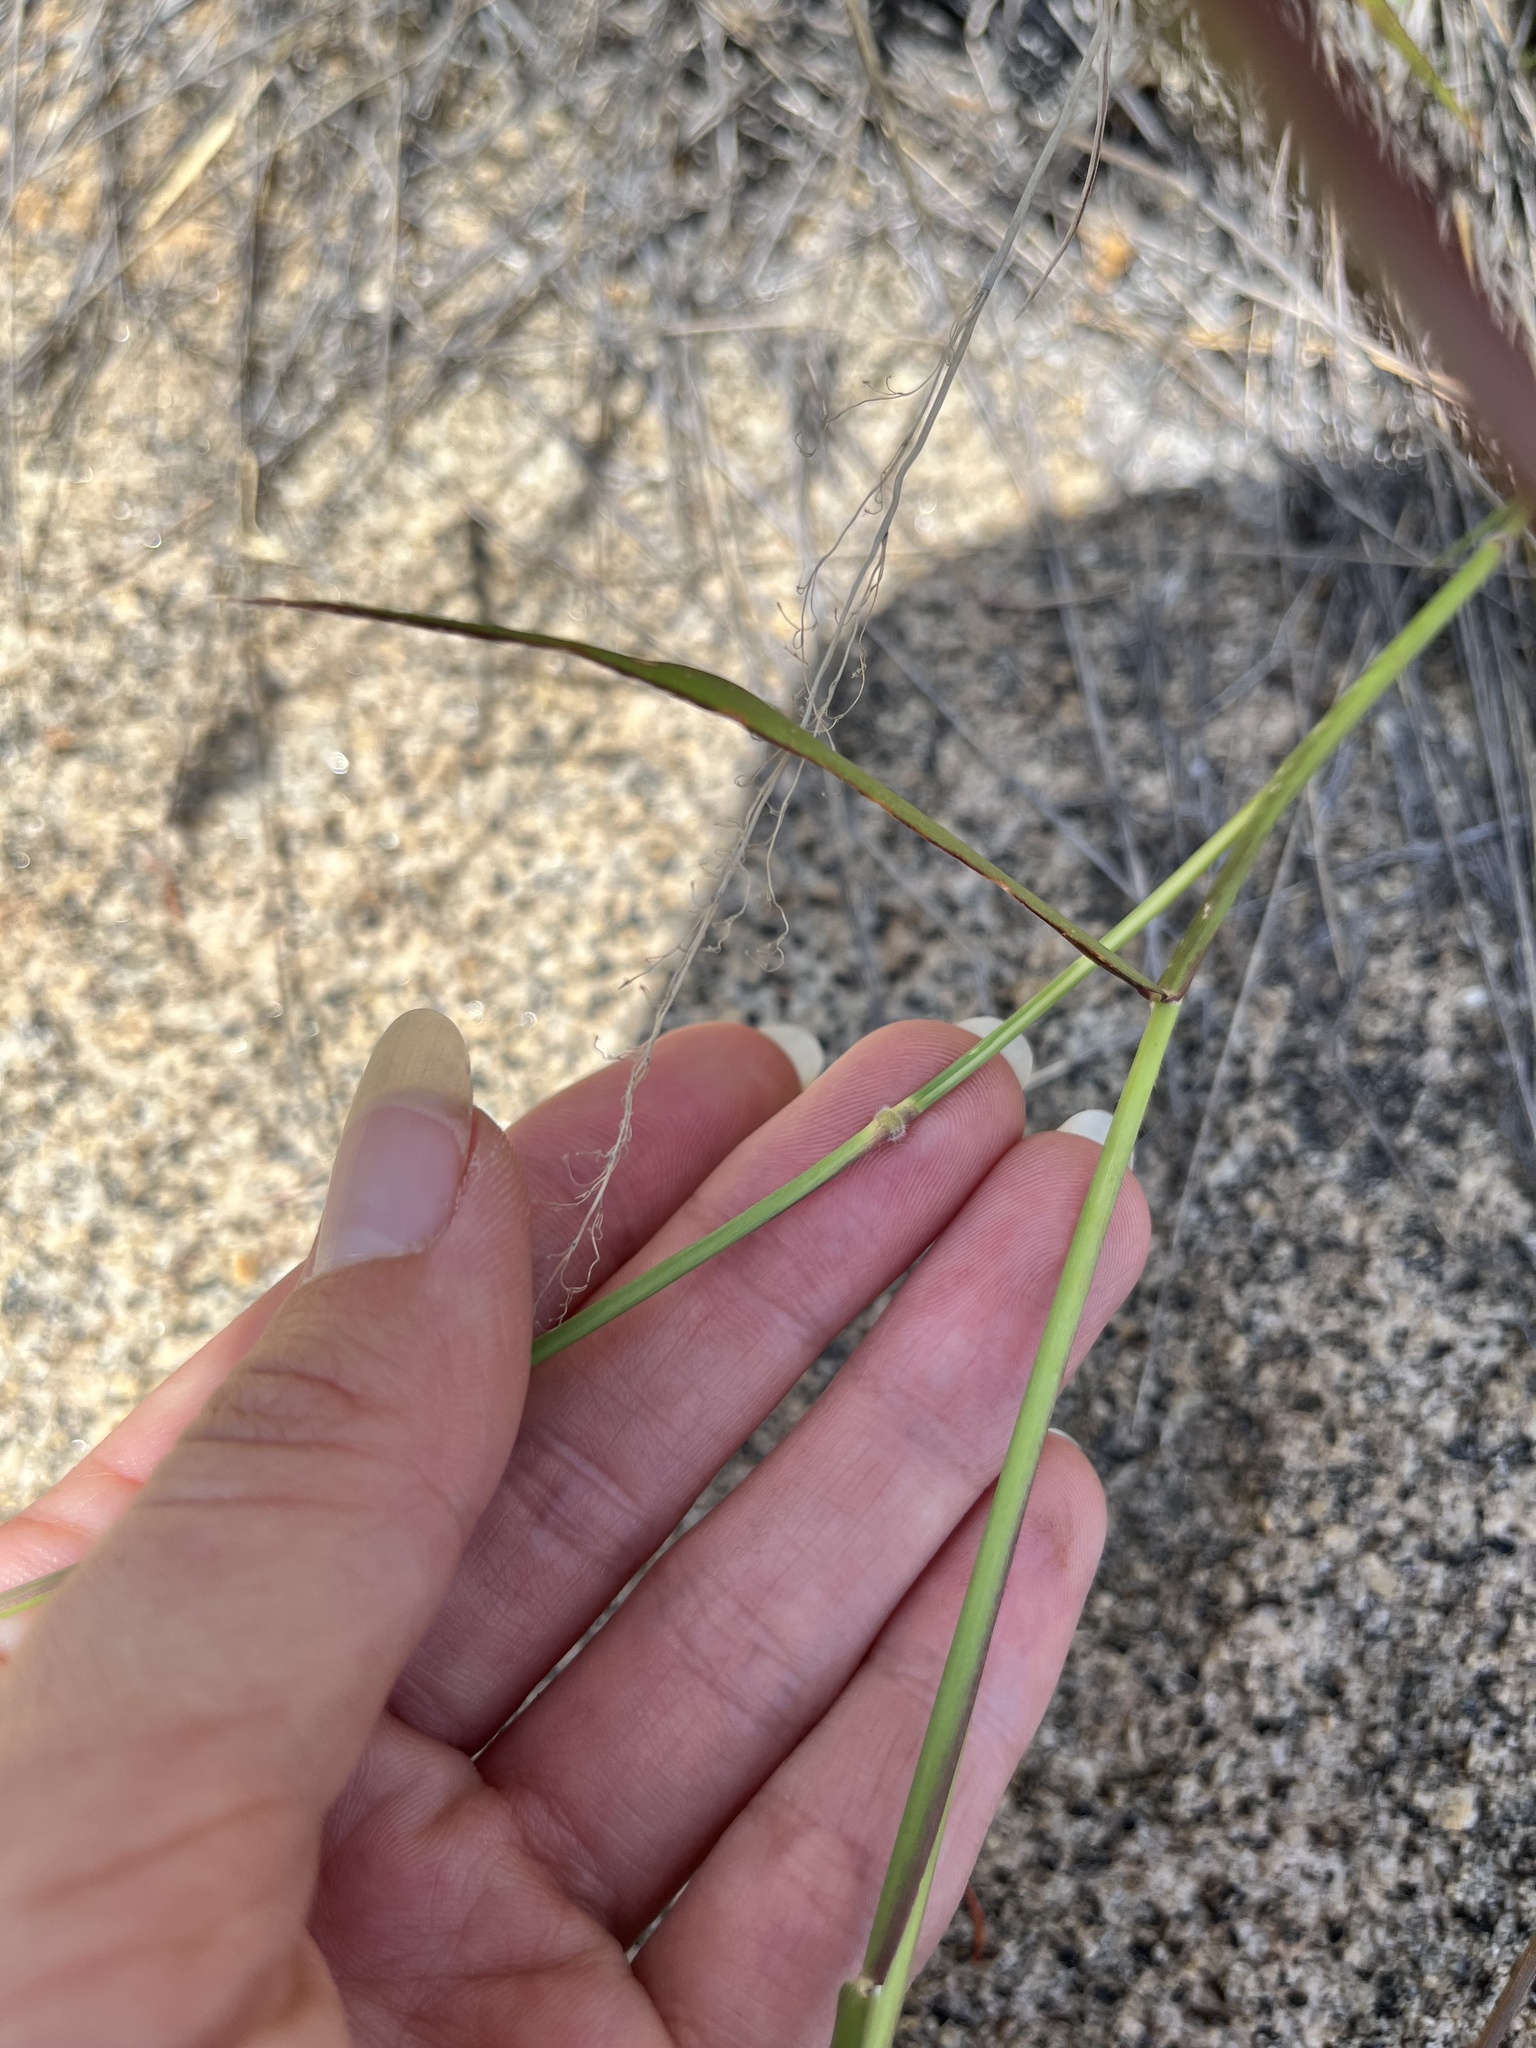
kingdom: Plantae
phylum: Tracheophyta
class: Liliopsida
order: Poales
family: Poaceae
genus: Melinis
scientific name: Melinis repens
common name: Rose natal grass
